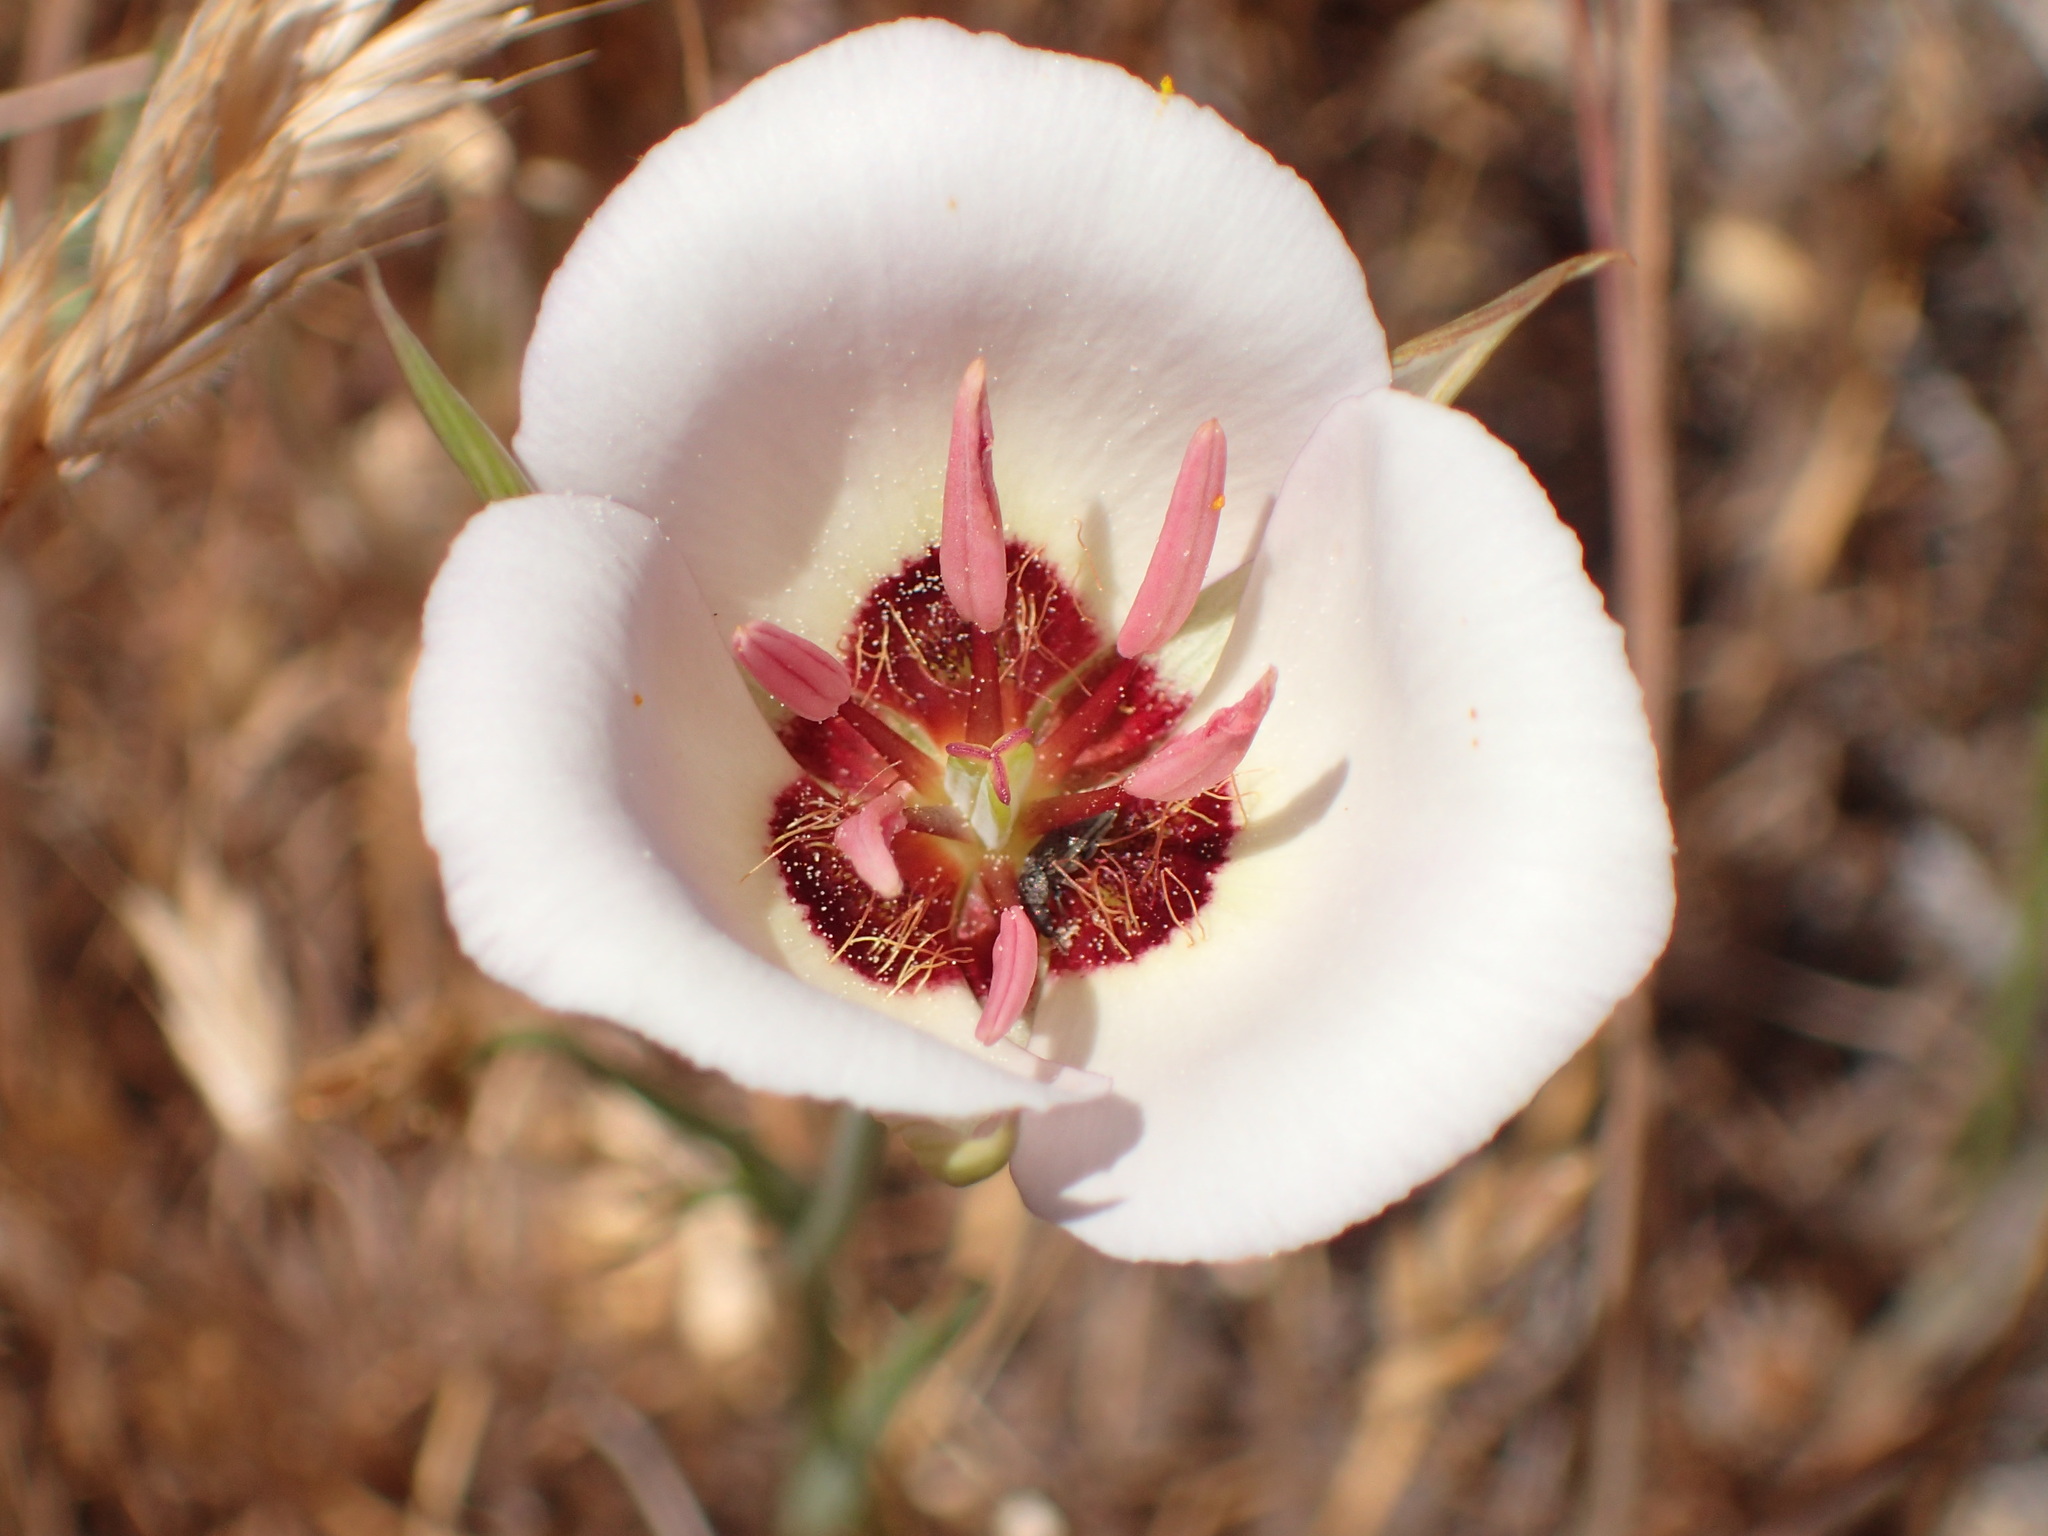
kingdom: Plantae
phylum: Tracheophyta
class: Liliopsida
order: Liliales
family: Liliaceae
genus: Calochortus
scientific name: Calochortus catalinae
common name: Catalina mariposa-lily
